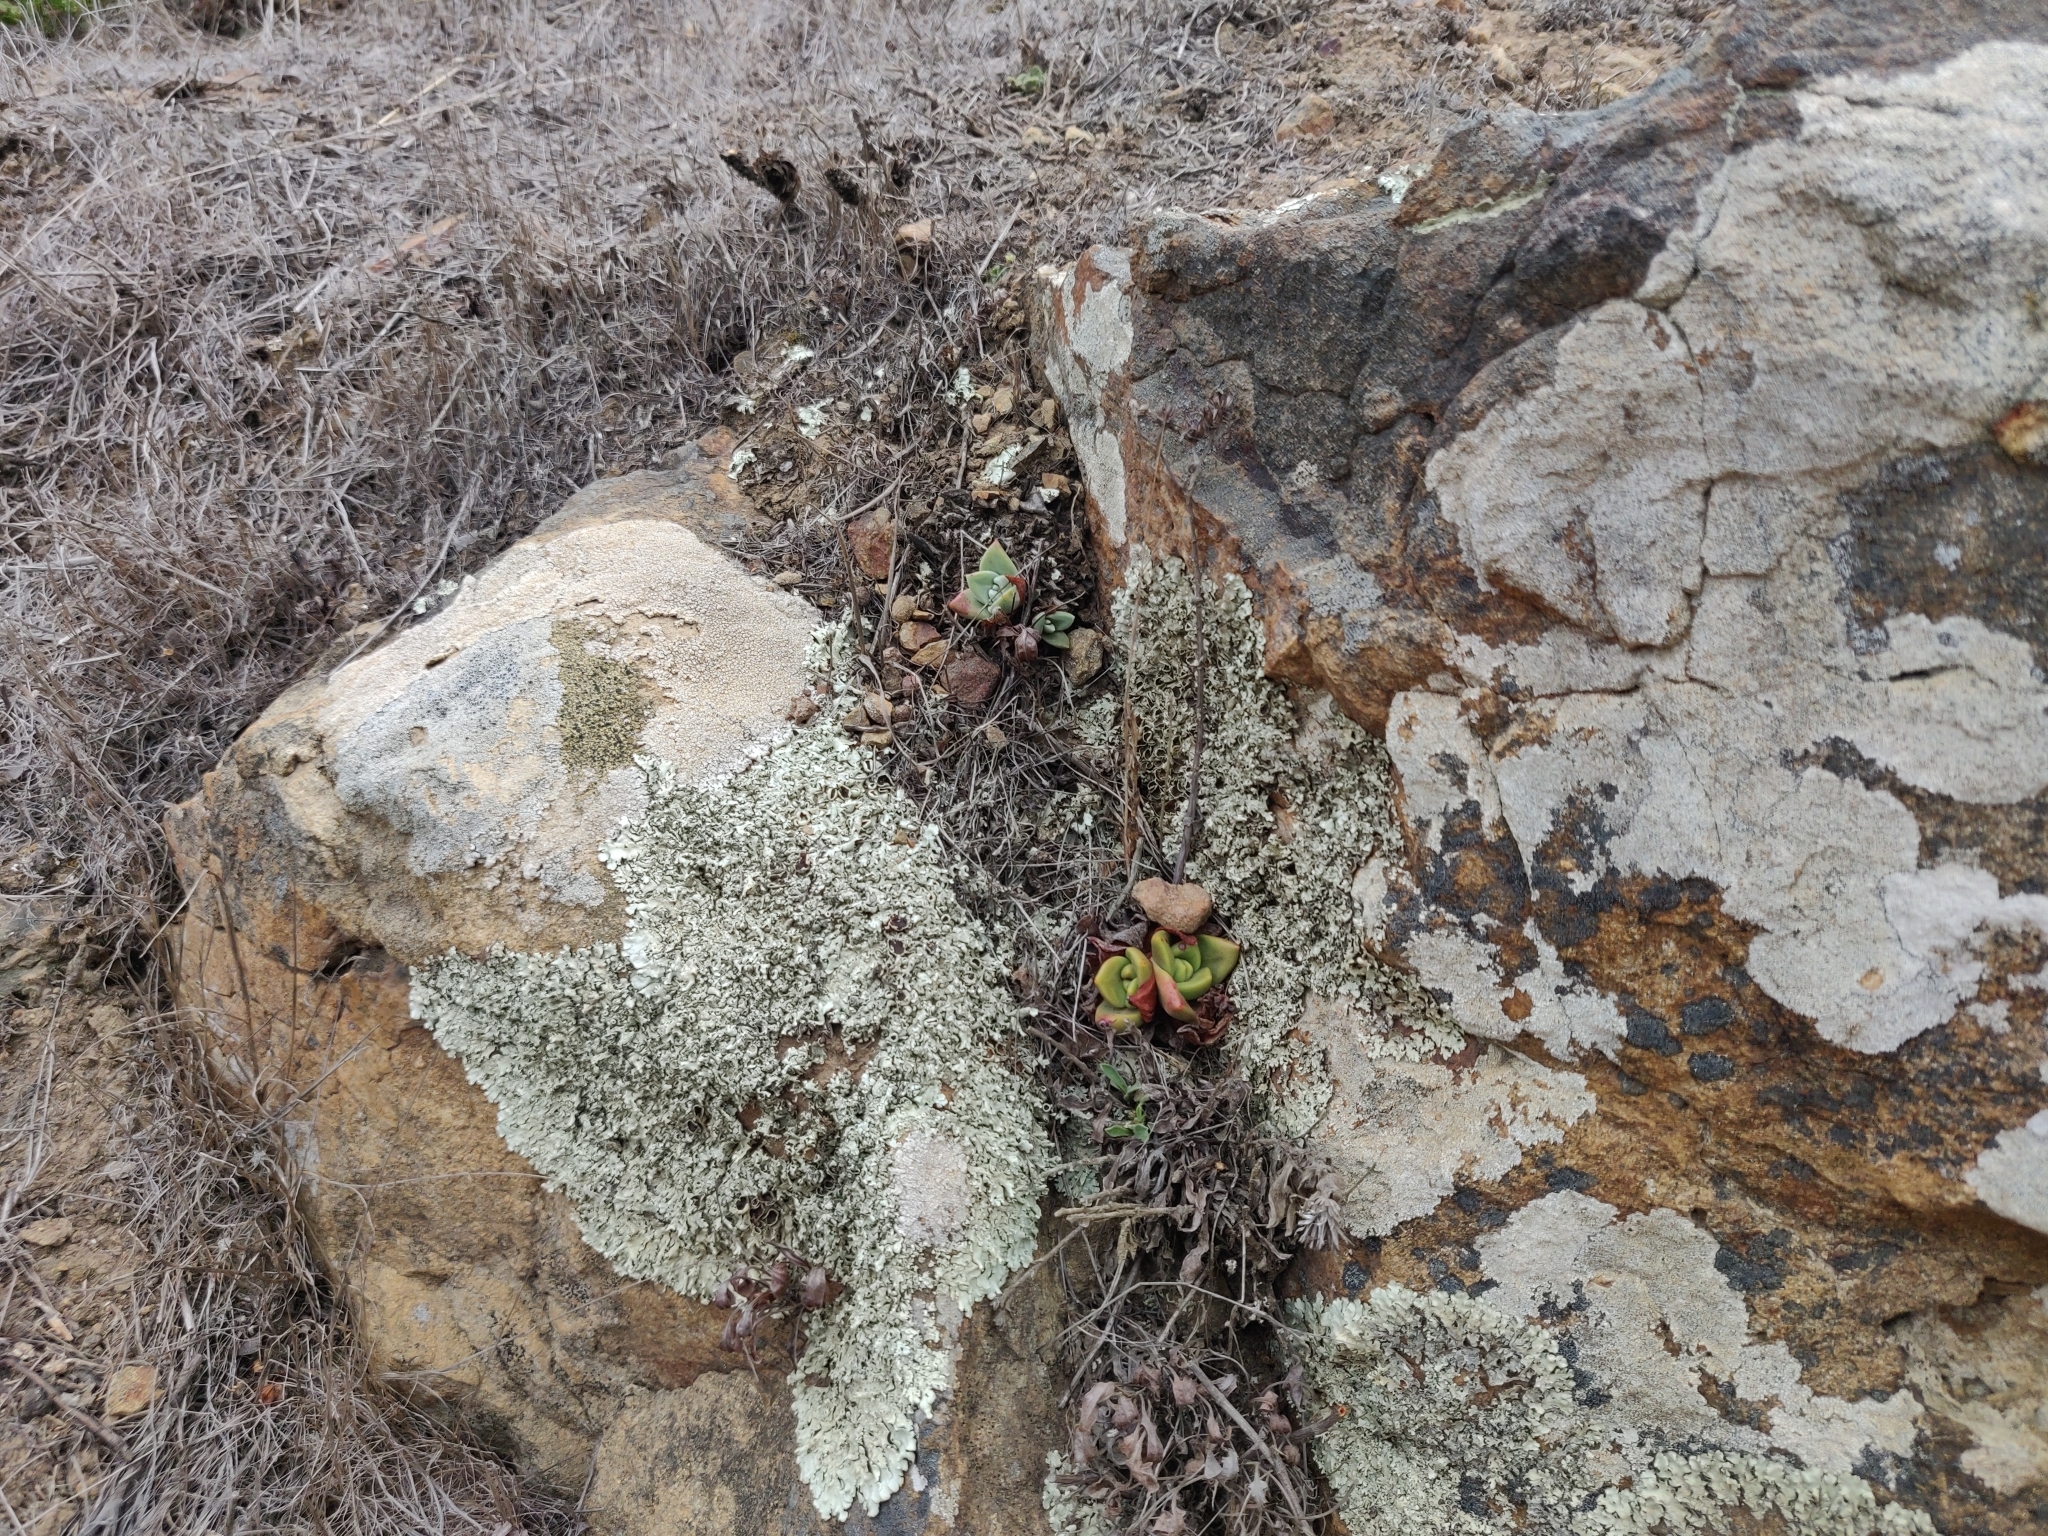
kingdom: Plantae
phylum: Tracheophyta
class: Magnoliopsida
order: Saxifragales
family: Crassulaceae
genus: Dudleya
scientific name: Dudleya farinosa
